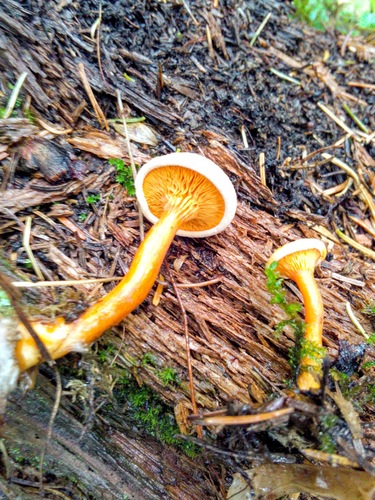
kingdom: Fungi
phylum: Basidiomycota
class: Agaricomycetes
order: Boletales
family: Hygrophoropsidaceae
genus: Hygrophoropsis
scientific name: Hygrophoropsis aurantiaca
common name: False chanterelle
